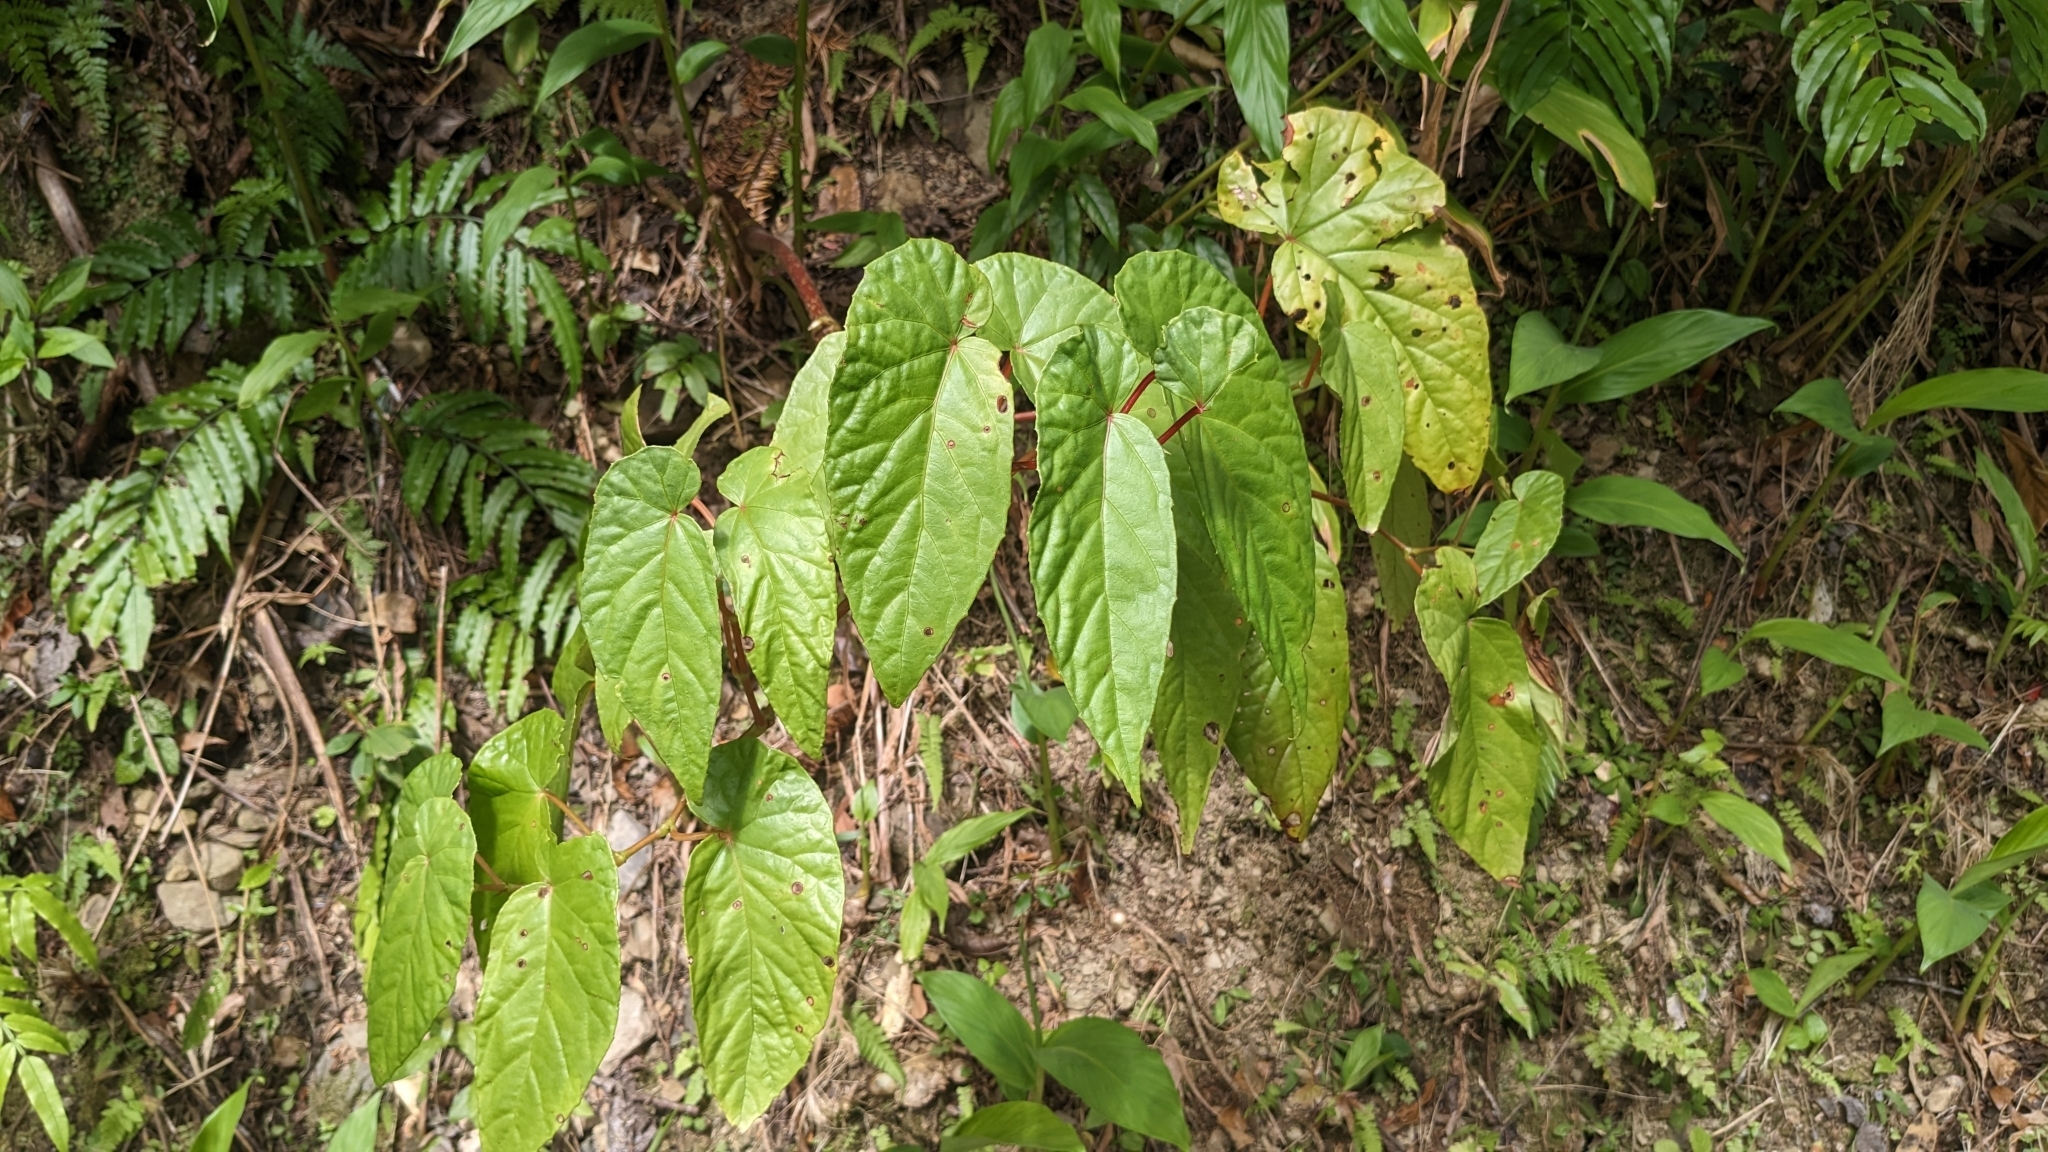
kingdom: Plantae
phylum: Tracheophyta
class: Magnoliopsida
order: Cucurbitales
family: Begoniaceae
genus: Begonia
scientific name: Begonia longifolia
